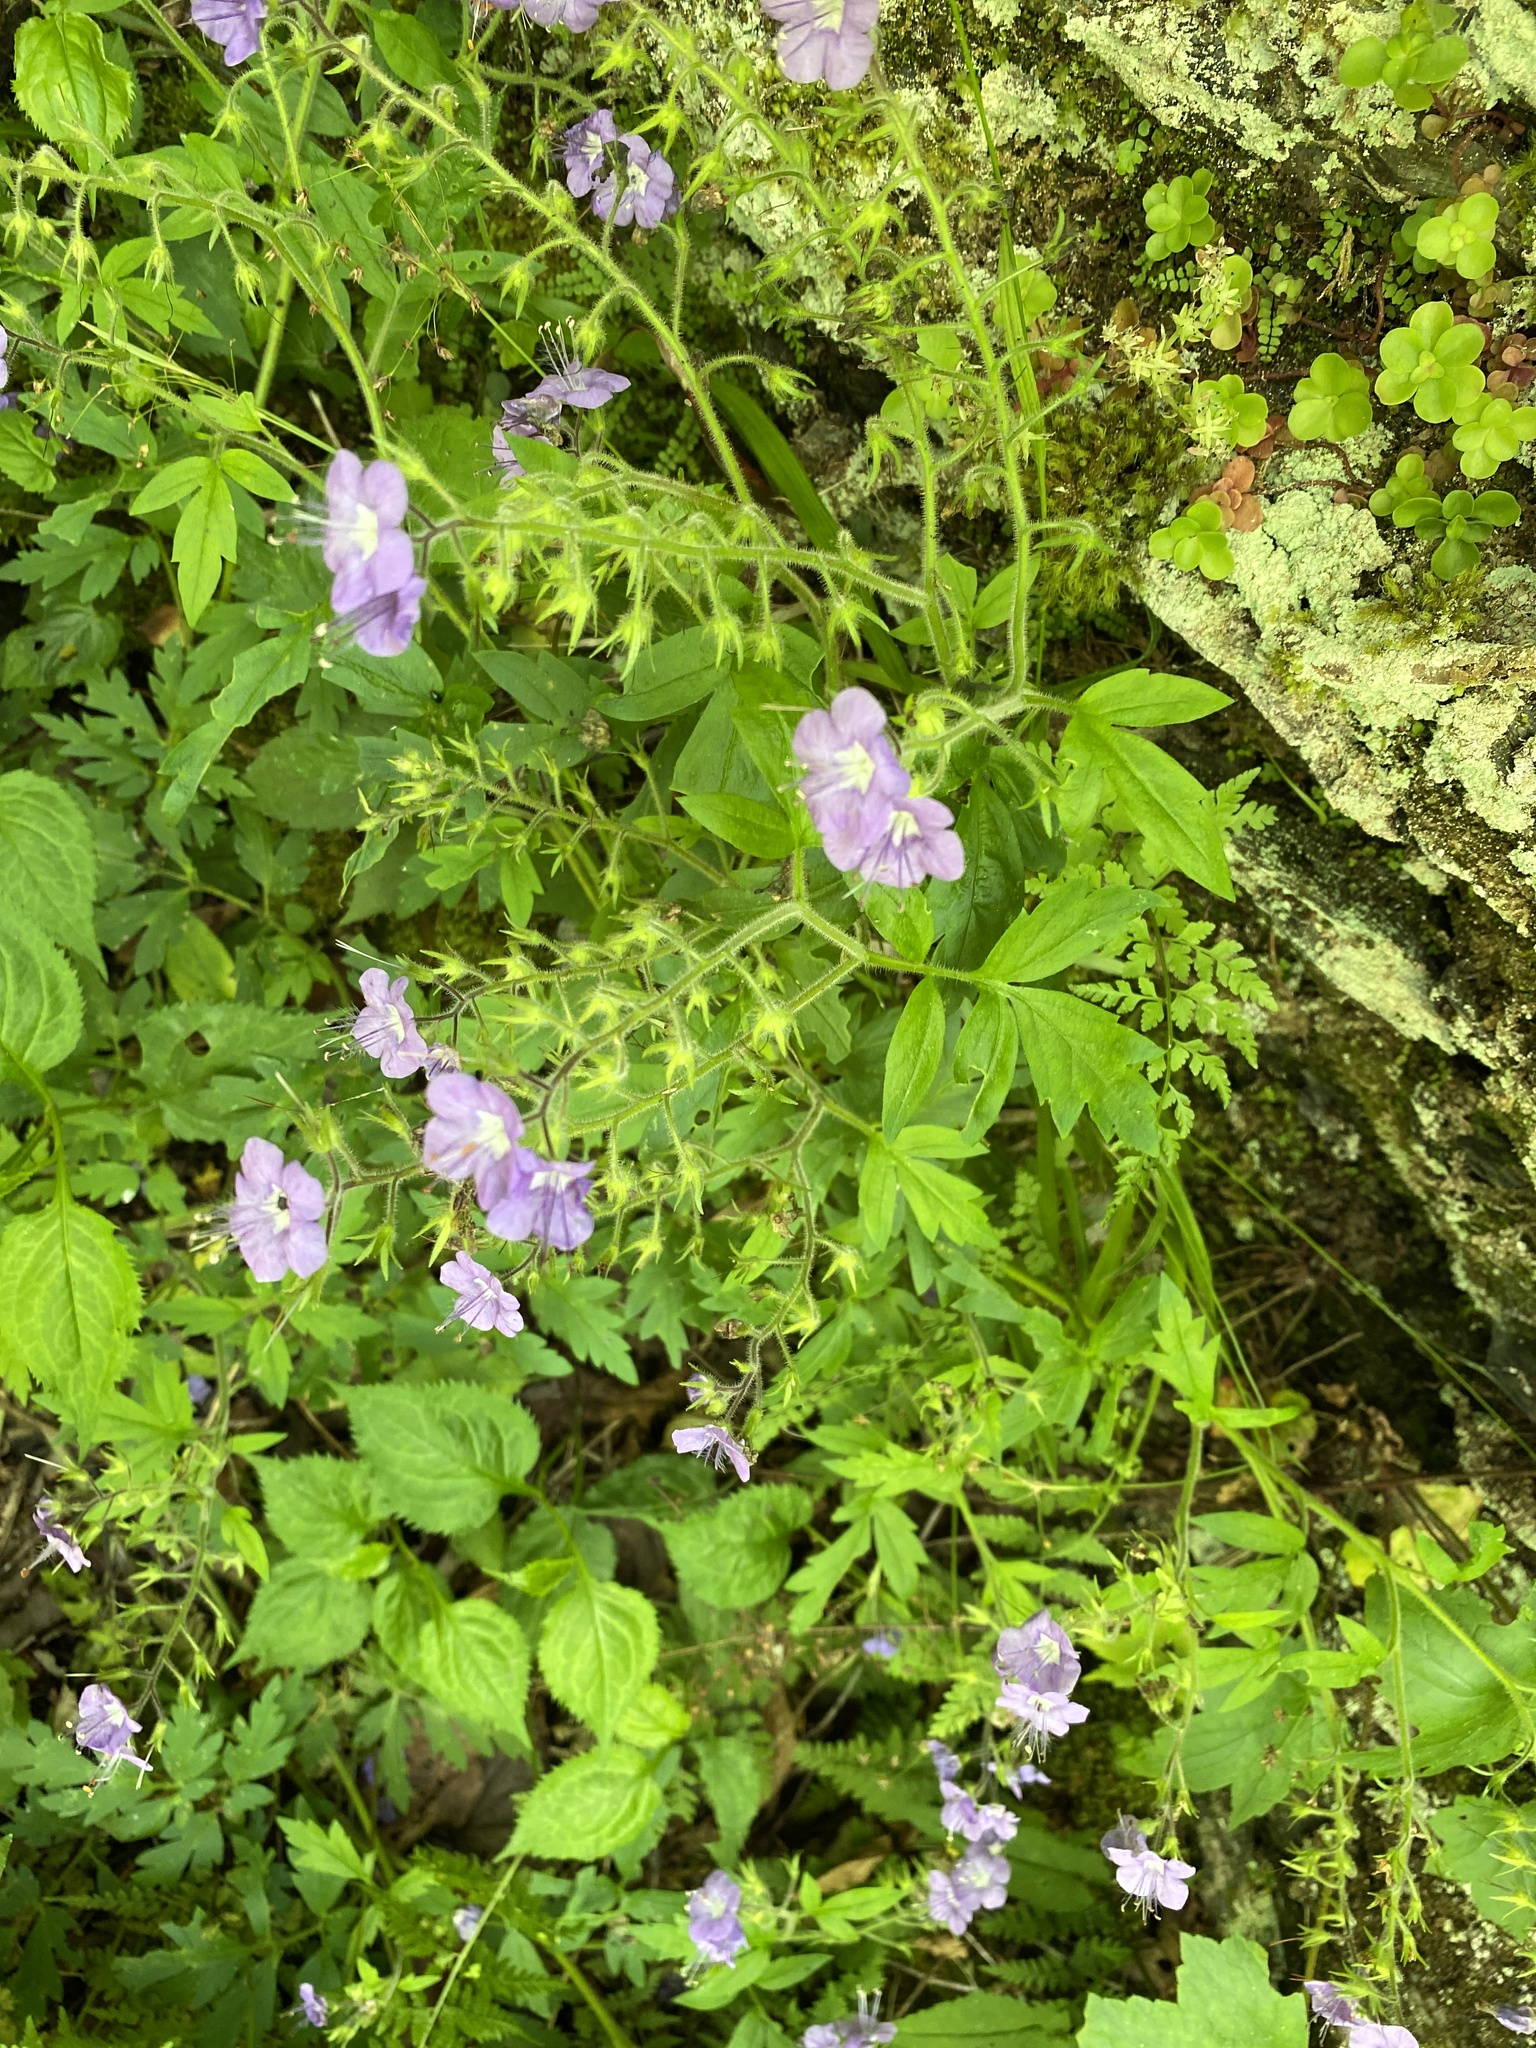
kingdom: Plantae
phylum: Tracheophyta
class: Magnoliopsida
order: Boraginales
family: Hydrophyllaceae
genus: Phacelia
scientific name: Phacelia bipinnatifida
